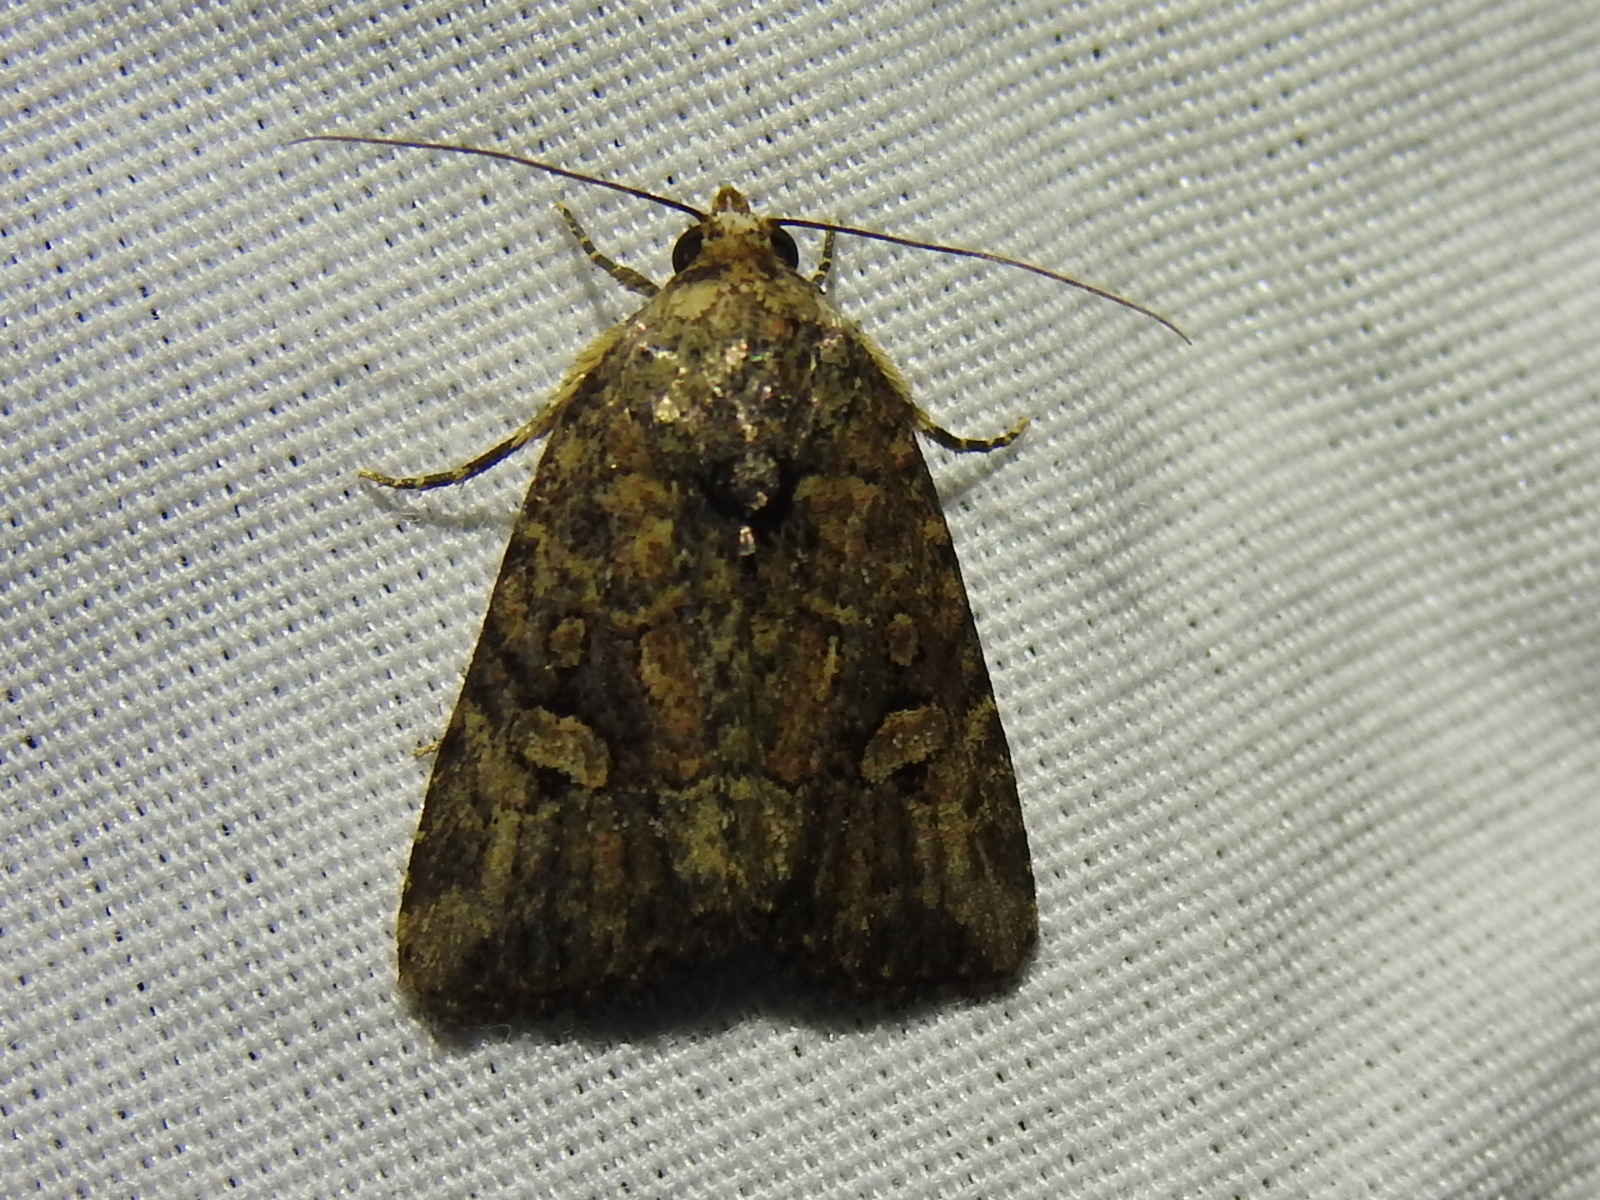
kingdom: Animalia
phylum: Arthropoda
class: Insecta
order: Lepidoptera
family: Noctuidae
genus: Elaphria
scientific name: Elaphria trolia
